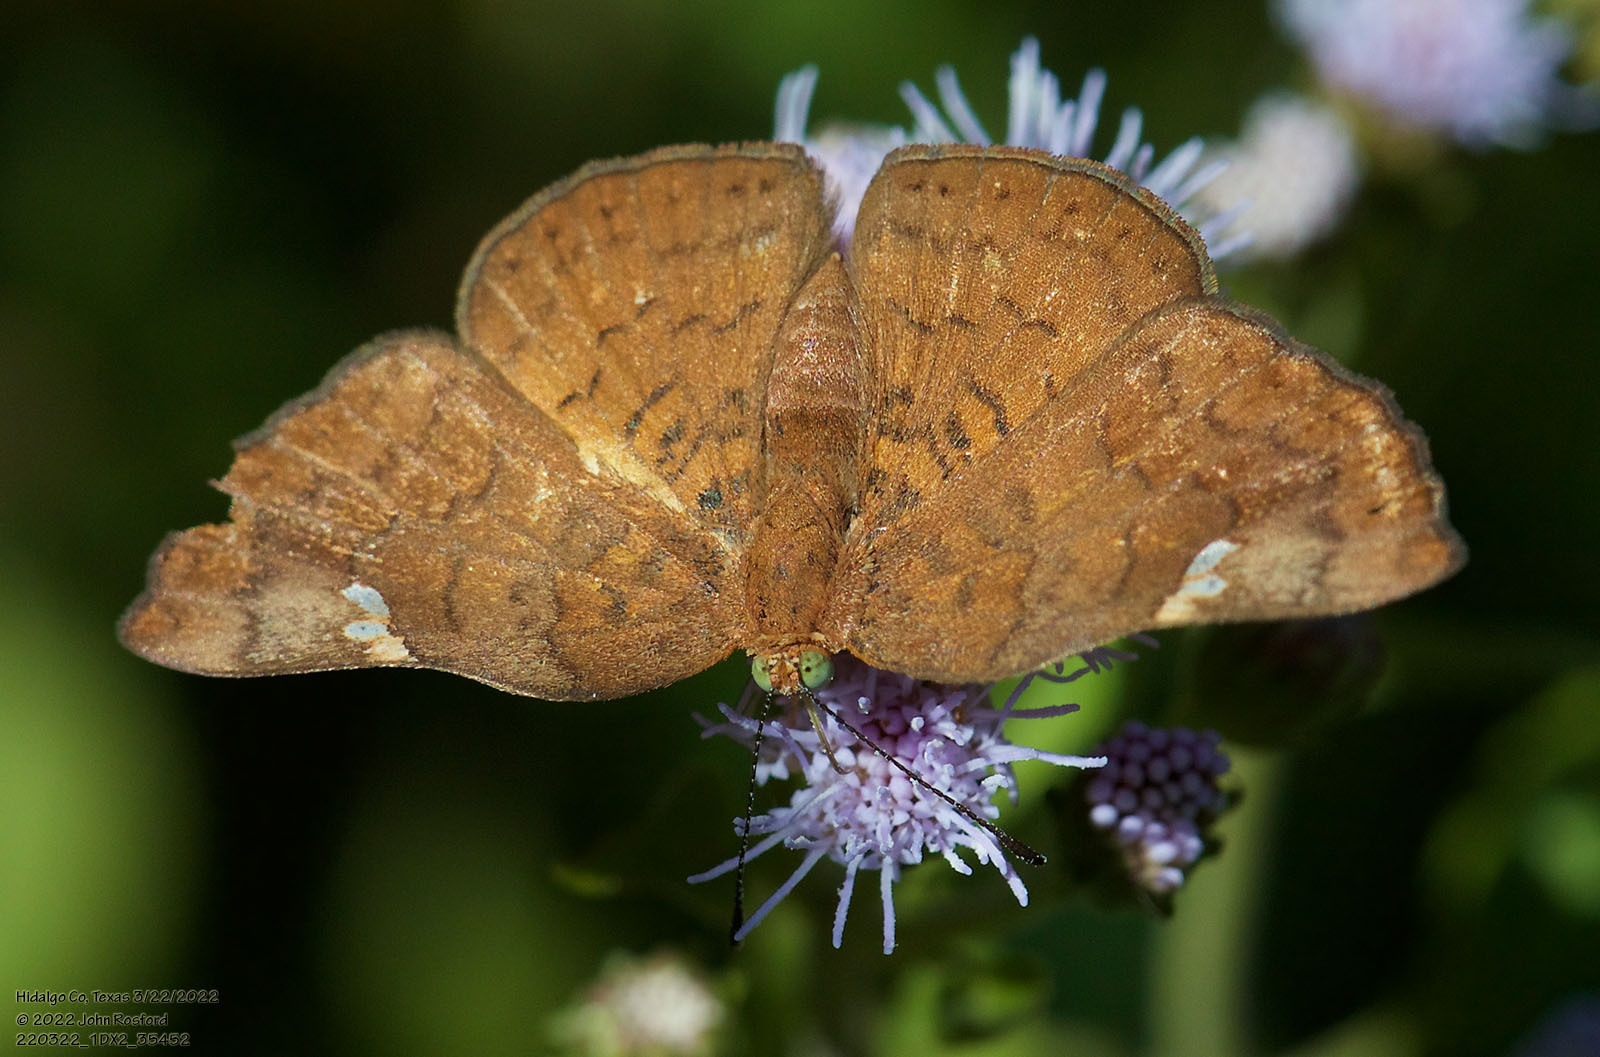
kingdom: Animalia
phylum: Arthropoda
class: Insecta
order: Lepidoptera
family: Riodinidae
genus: Curvie
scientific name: Curvie emesia
